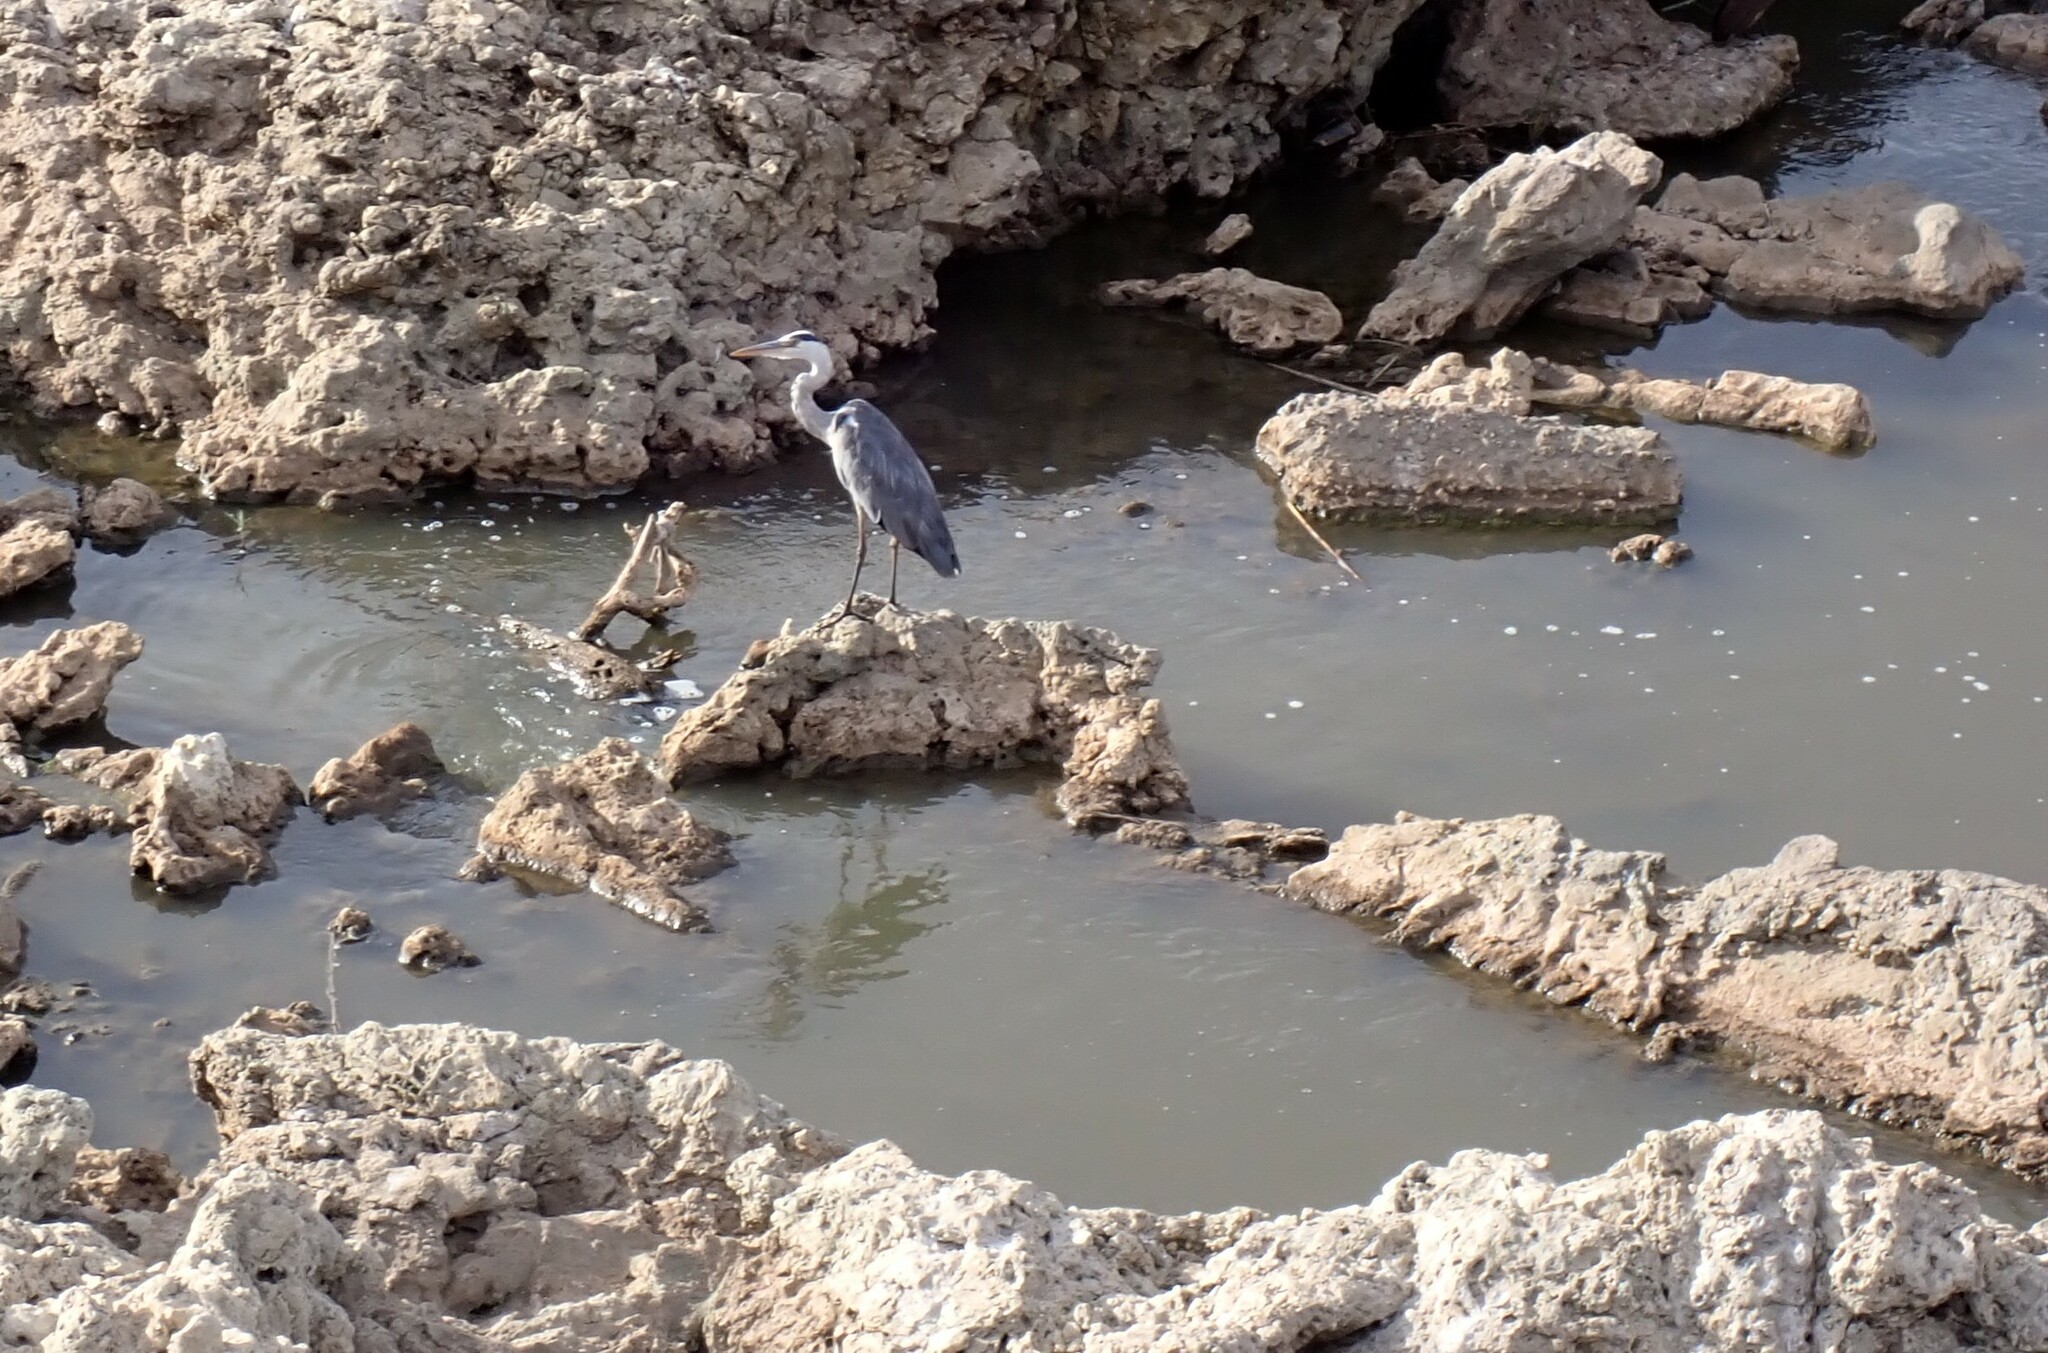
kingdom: Animalia
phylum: Chordata
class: Aves
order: Pelecaniformes
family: Ardeidae
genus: Ardea
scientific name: Ardea cinerea
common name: Grey heron
